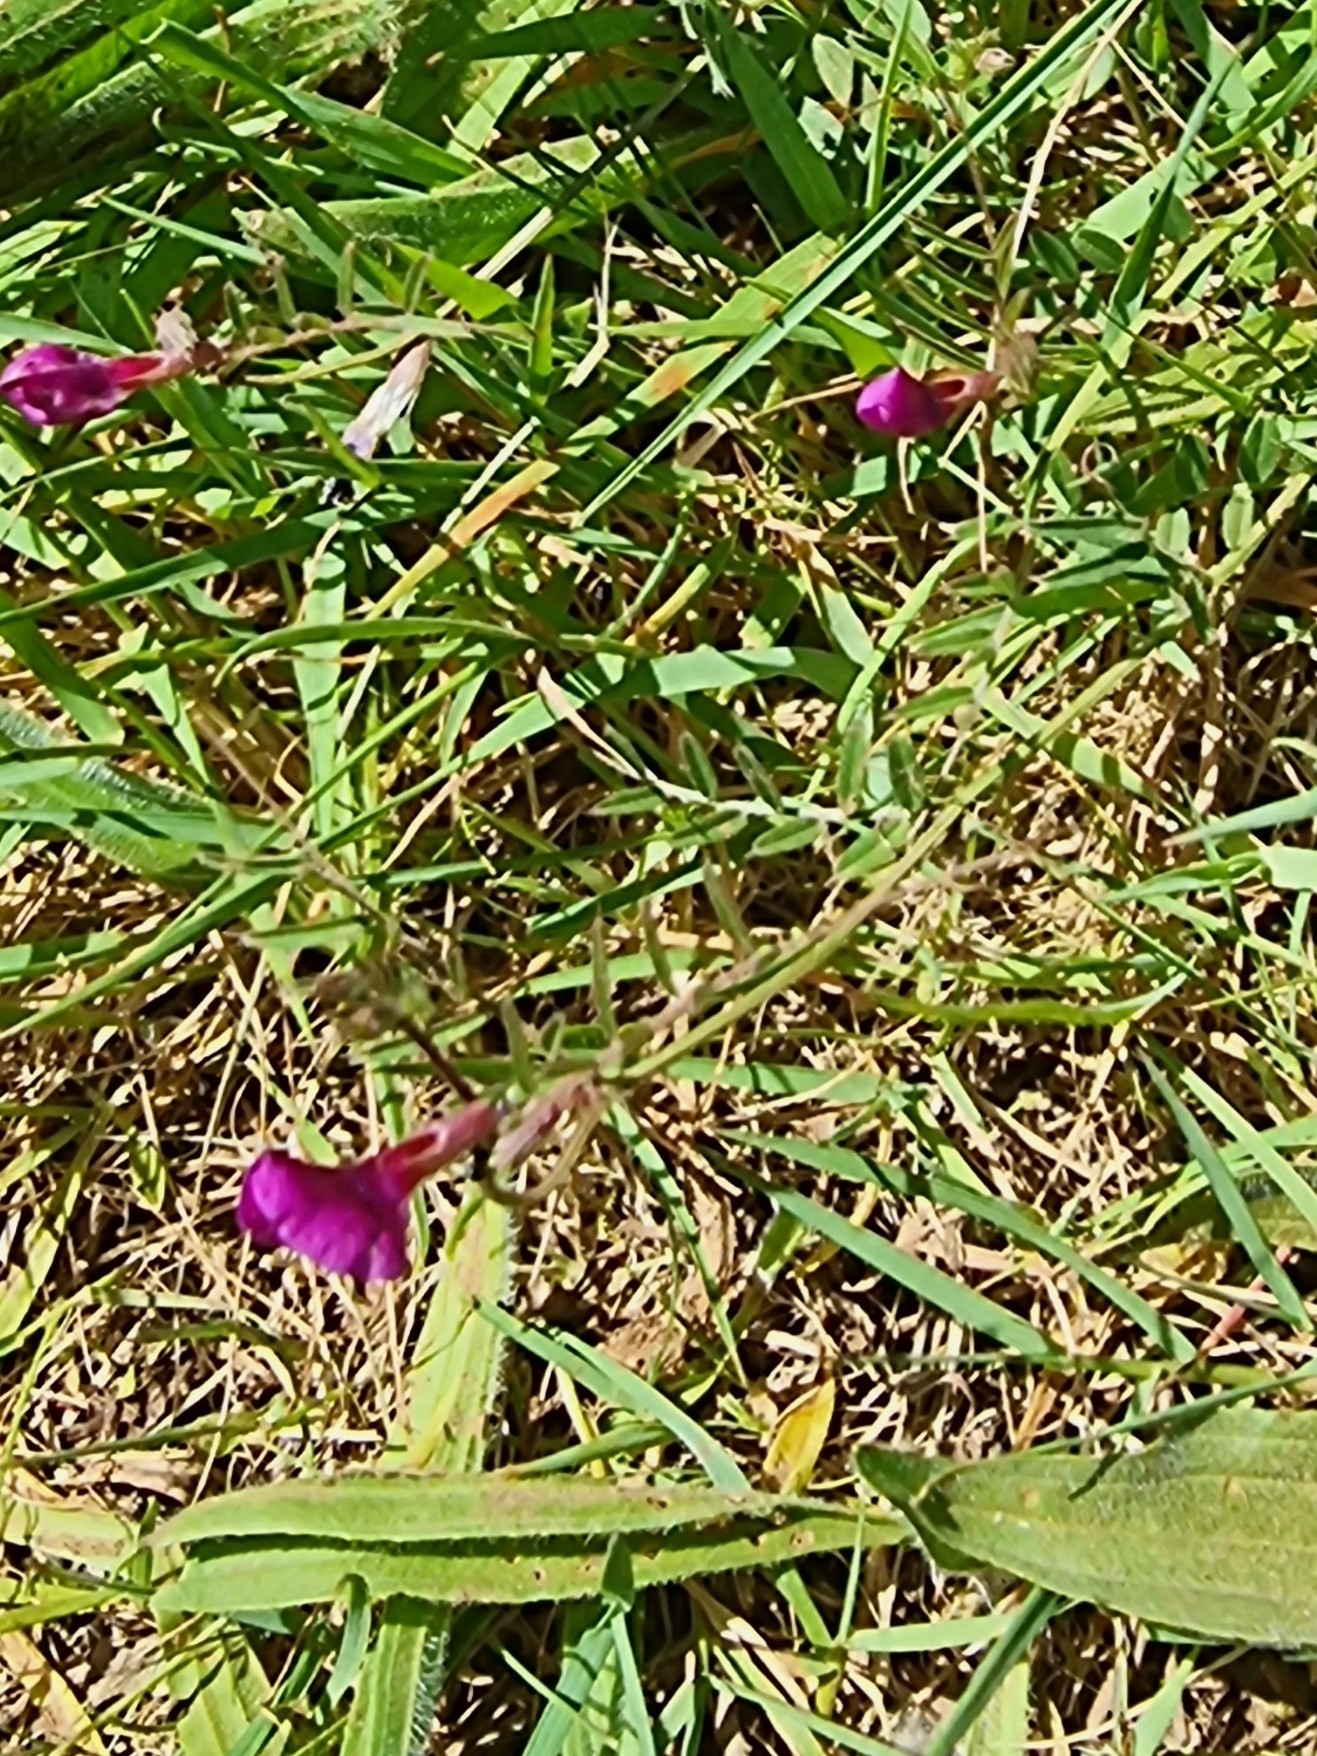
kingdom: Plantae
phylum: Tracheophyta
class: Magnoliopsida
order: Fabales
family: Fabaceae
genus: Vicia
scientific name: Vicia sativa
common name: Garden vetch
